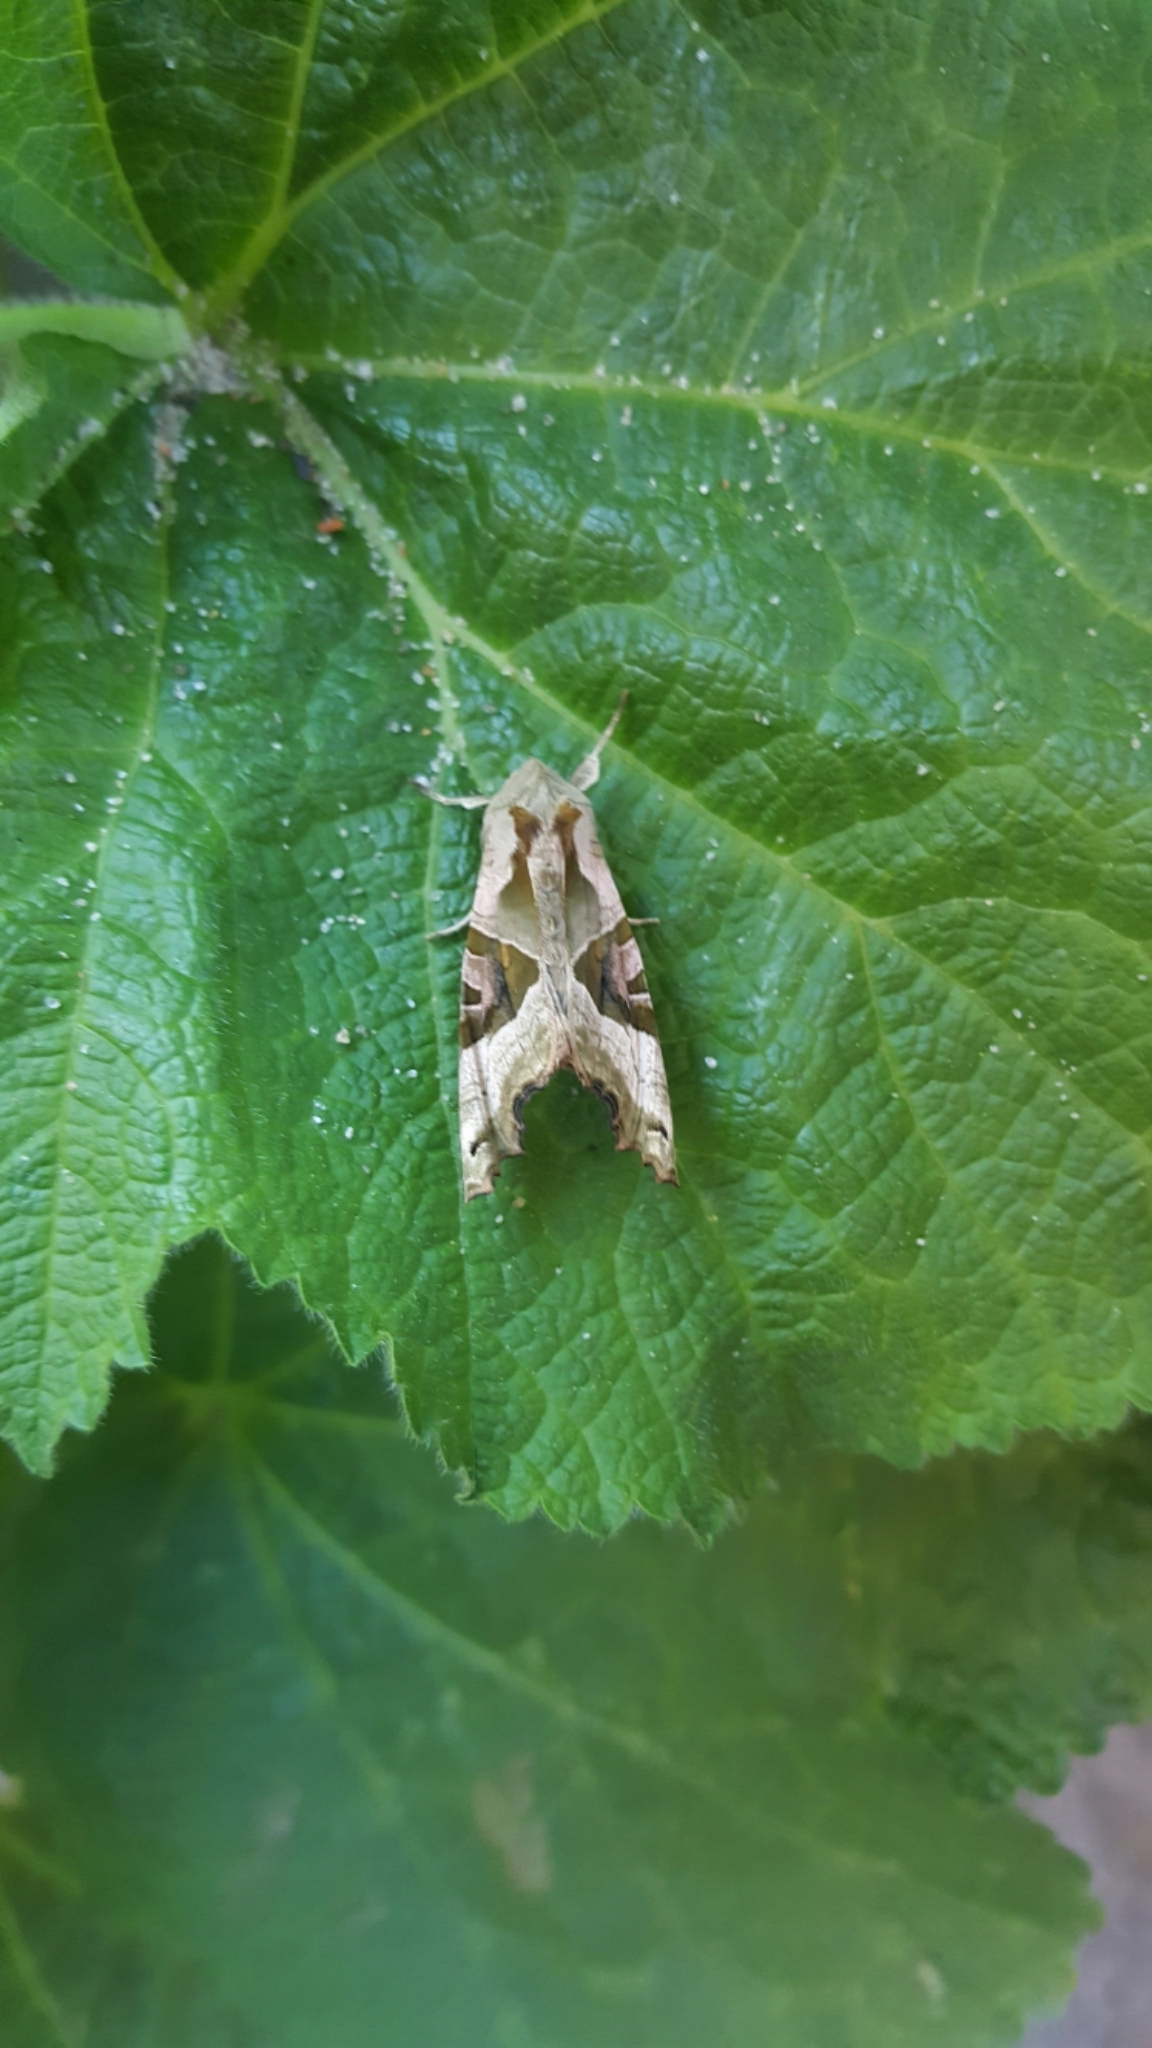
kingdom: Animalia
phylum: Arthropoda
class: Insecta
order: Lepidoptera
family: Noctuidae
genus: Phlogophora
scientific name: Phlogophora meticulosa
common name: Angle shades
